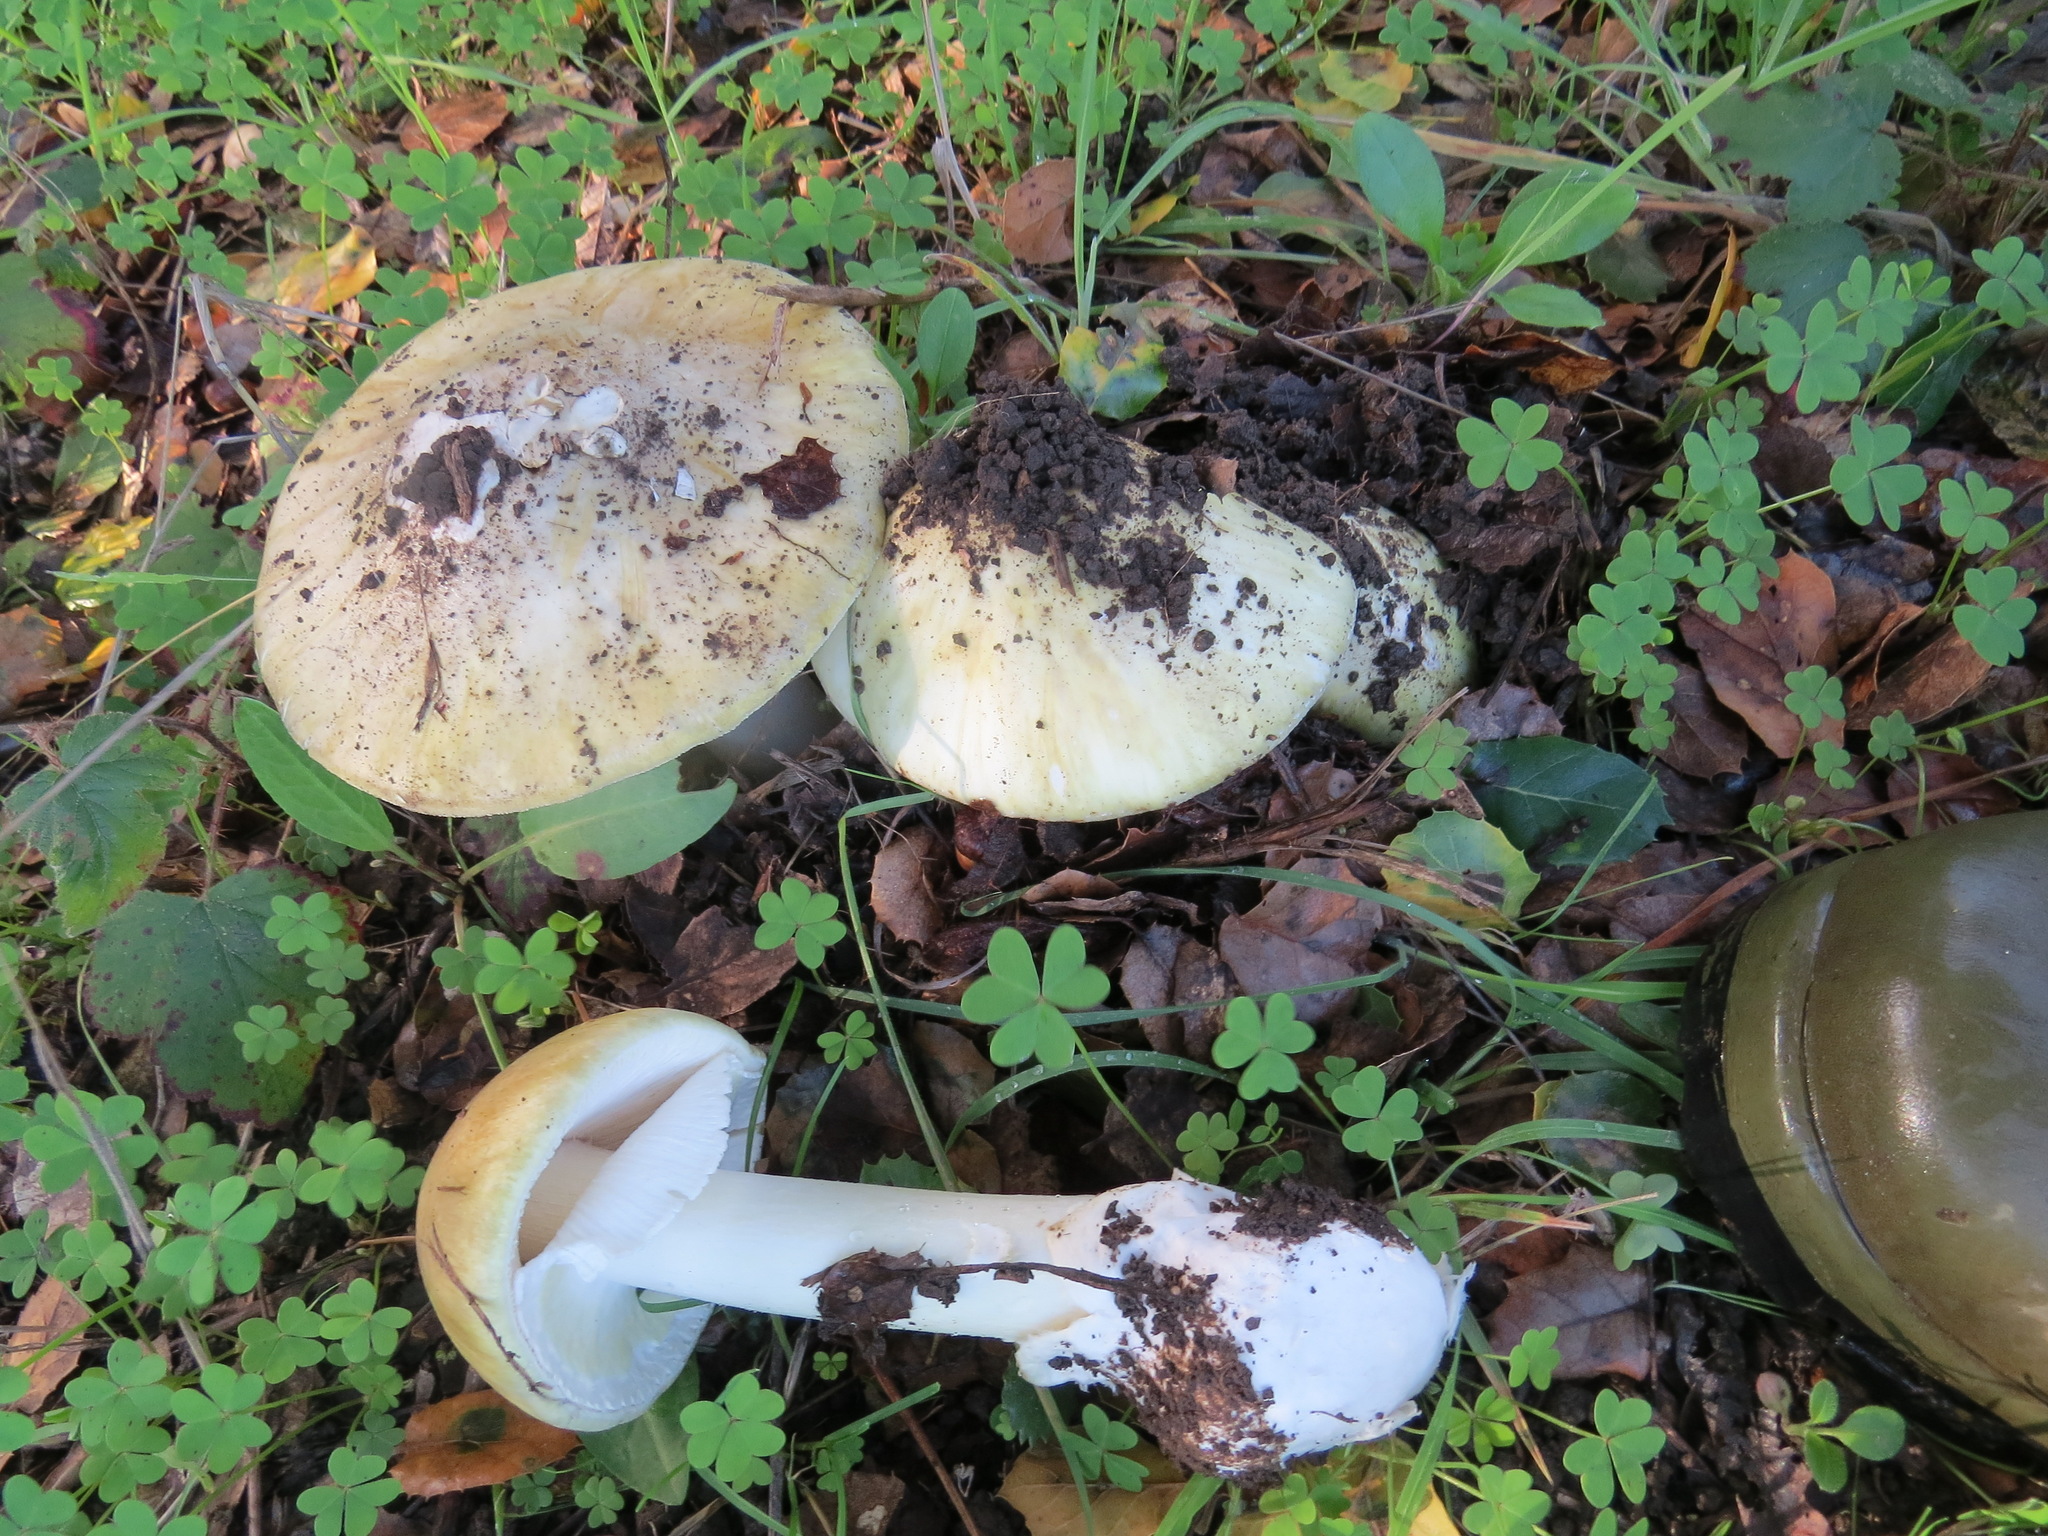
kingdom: Fungi
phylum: Basidiomycota
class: Agaricomycetes
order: Agaricales
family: Amanitaceae
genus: Amanita
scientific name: Amanita phalloides
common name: Death cap
